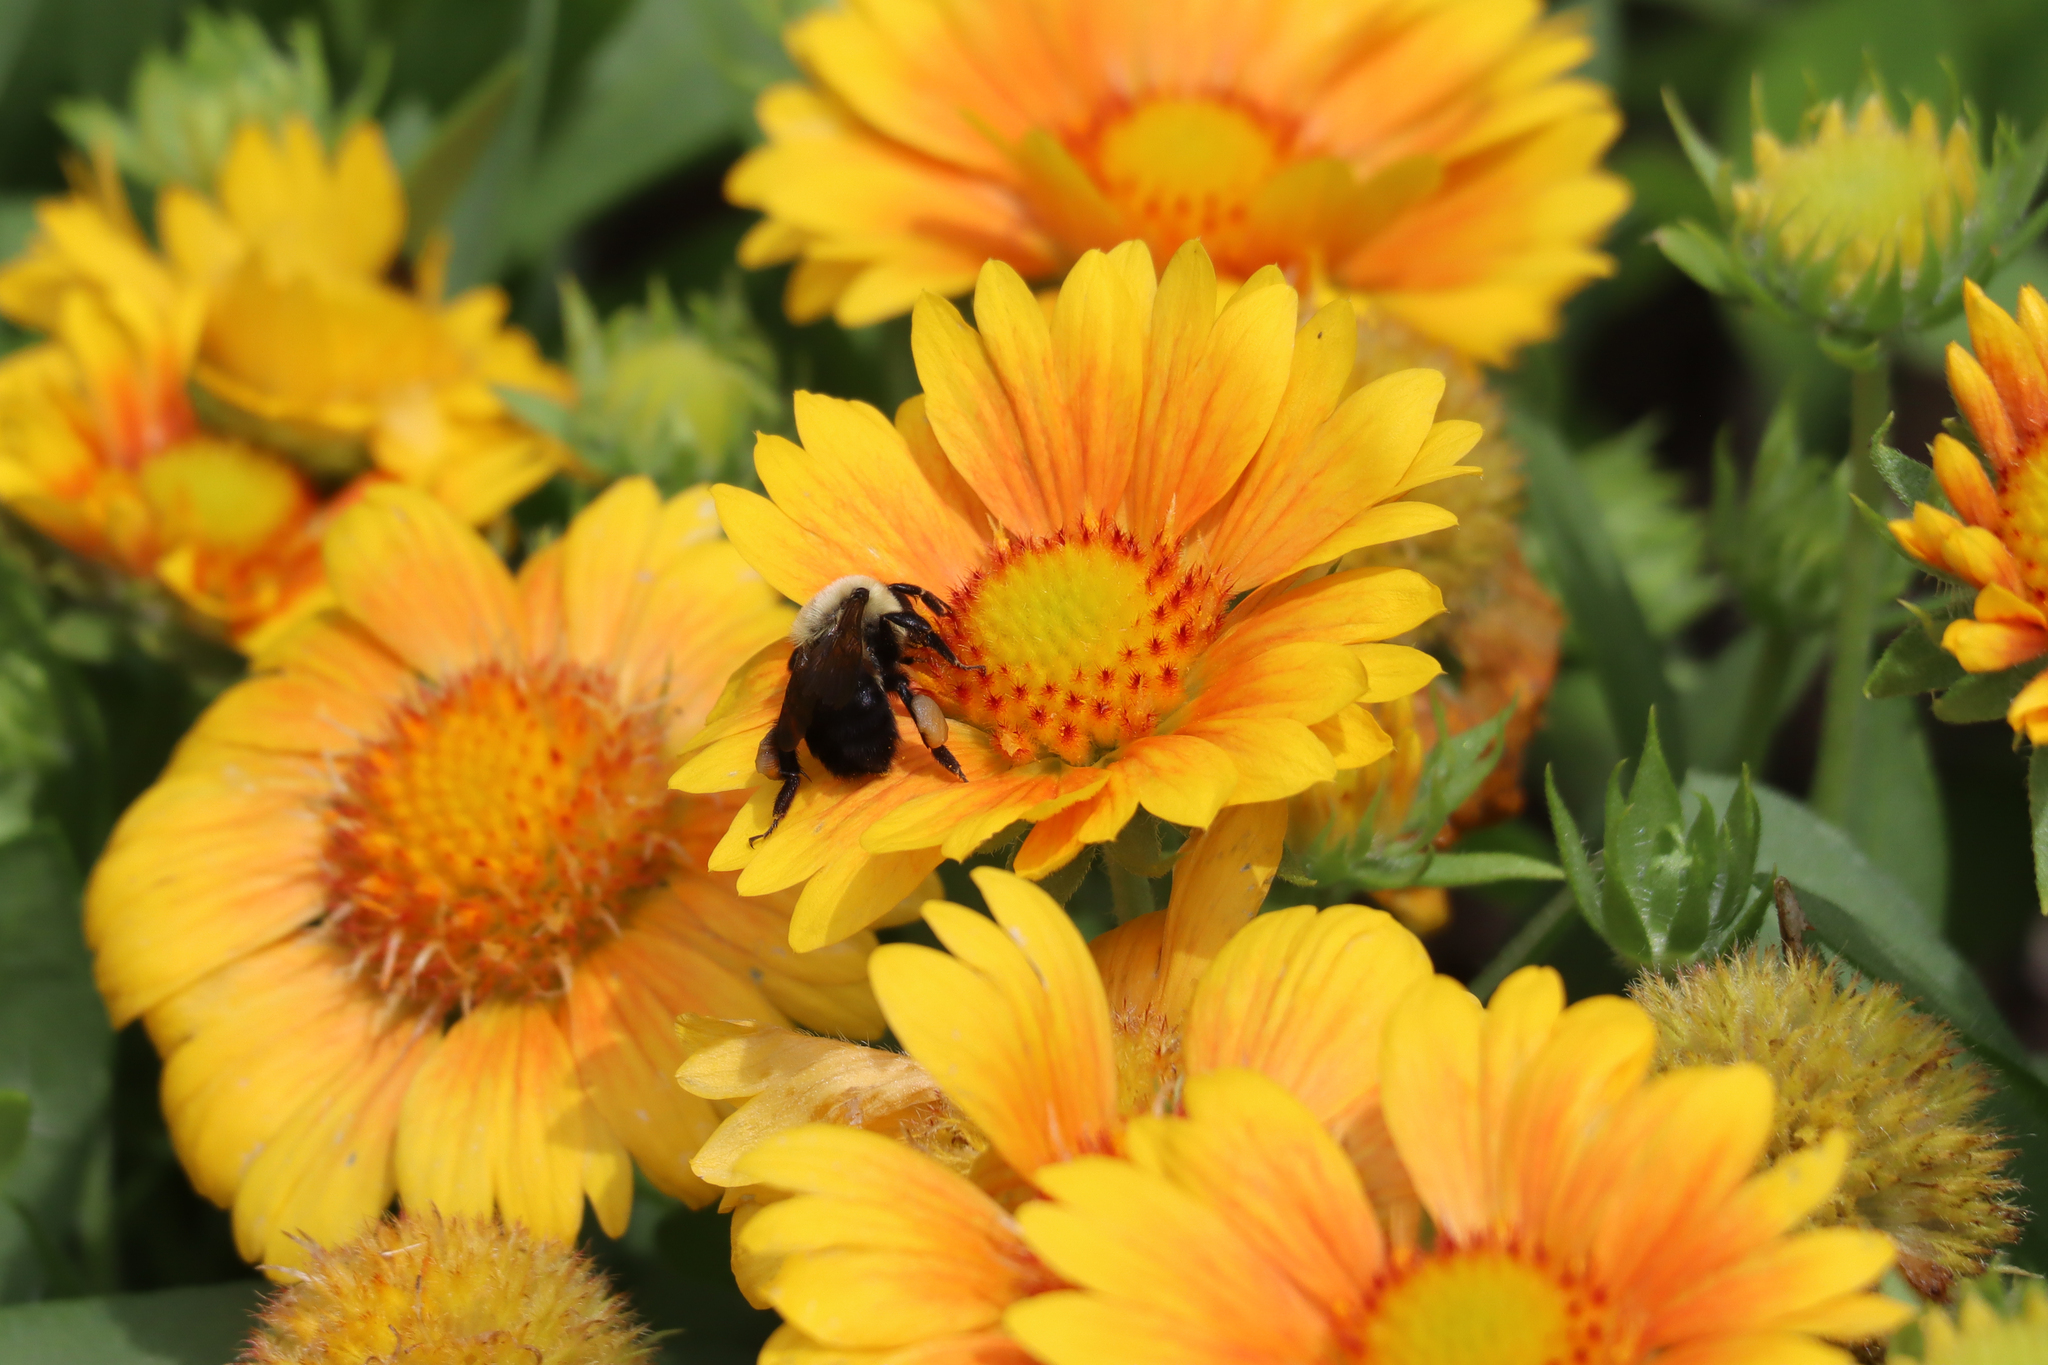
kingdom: Animalia
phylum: Arthropoda
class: Insecta
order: Hymenoptera
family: Apidae
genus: Bombus
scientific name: Bombus griseocollis
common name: Brown-belted bumble bee
